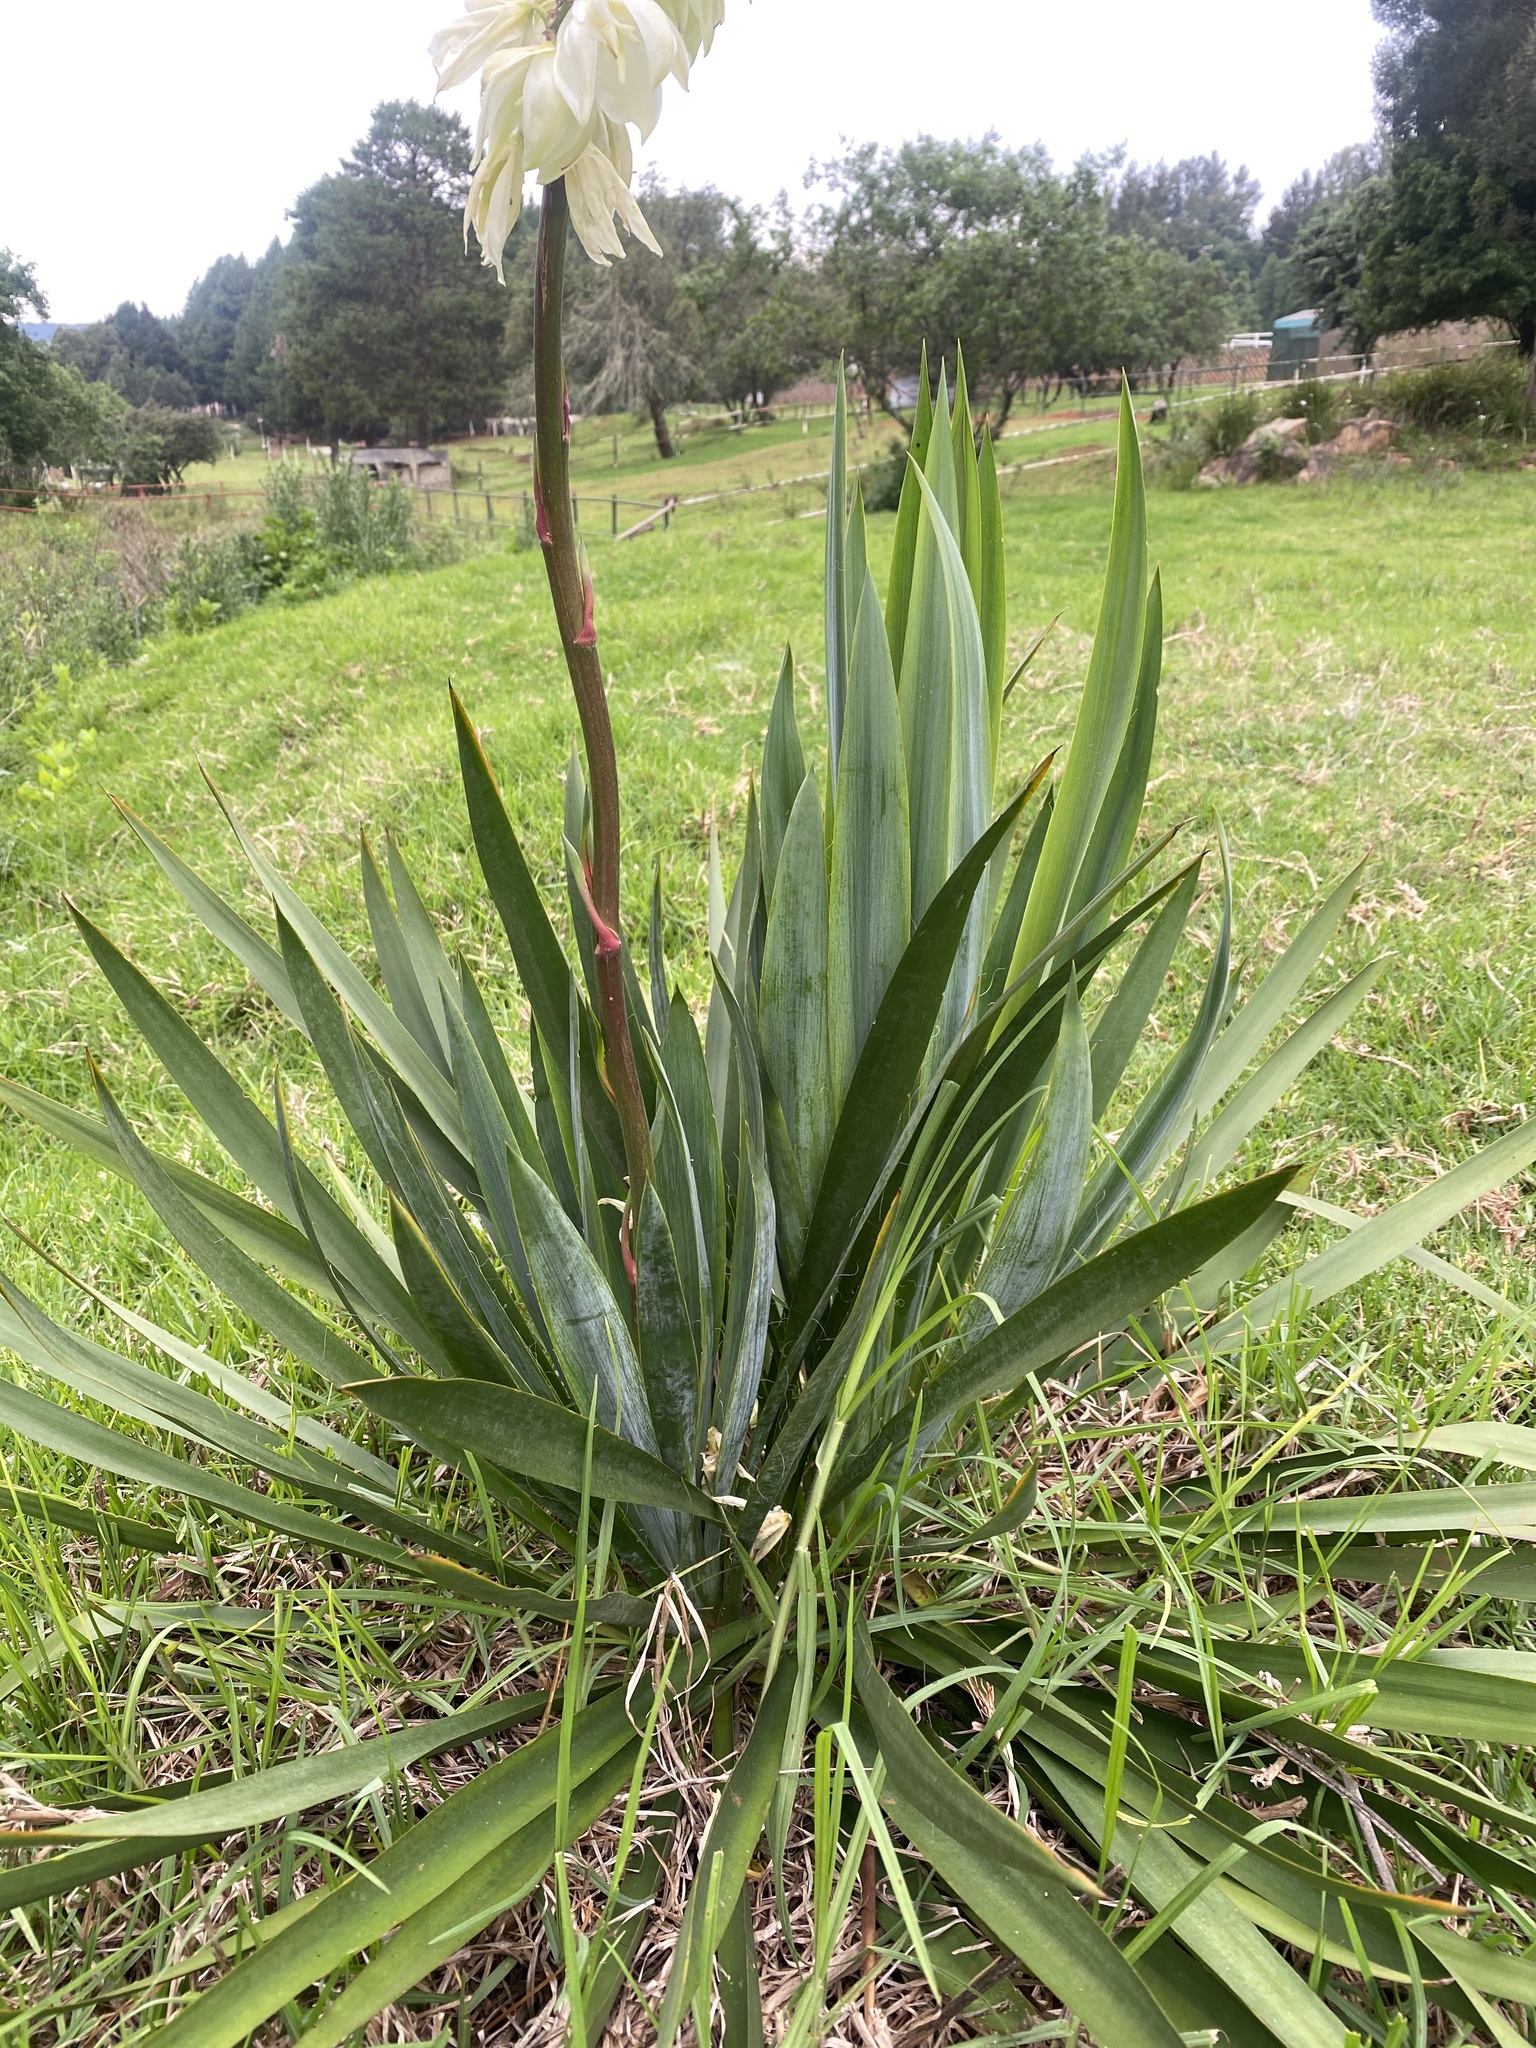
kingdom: Plantae
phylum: Tracheophyta
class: Liliopsida
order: Asparagales
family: Asparagaceae
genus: Yucca
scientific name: Yucca gloriosa
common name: Spanish-dagger
